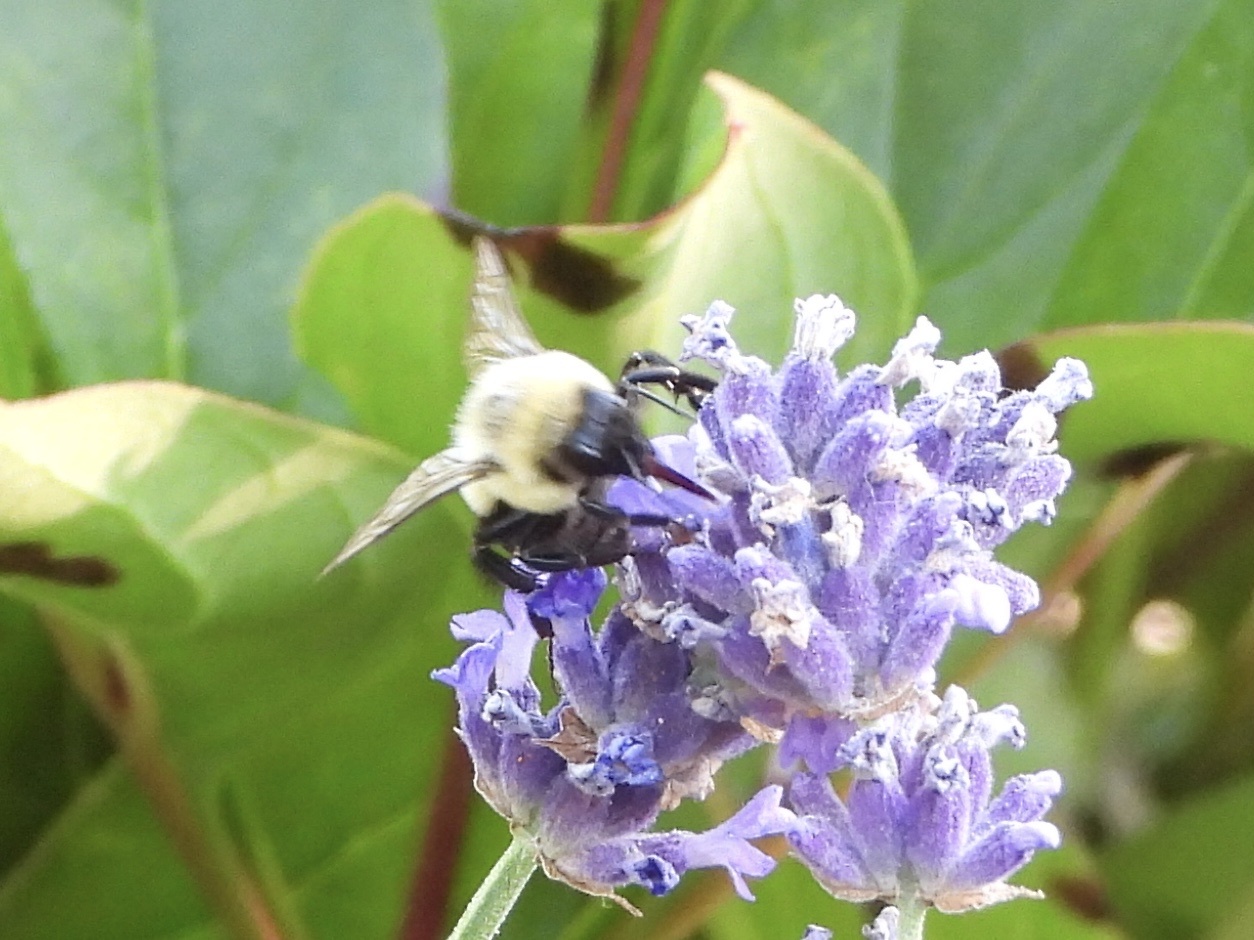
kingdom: Animalia
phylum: Arthropoda
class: Insecta
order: Hymenoptera
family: Apidae
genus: Bombus
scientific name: Bombus impatiens
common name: Common eastern bumble bee
